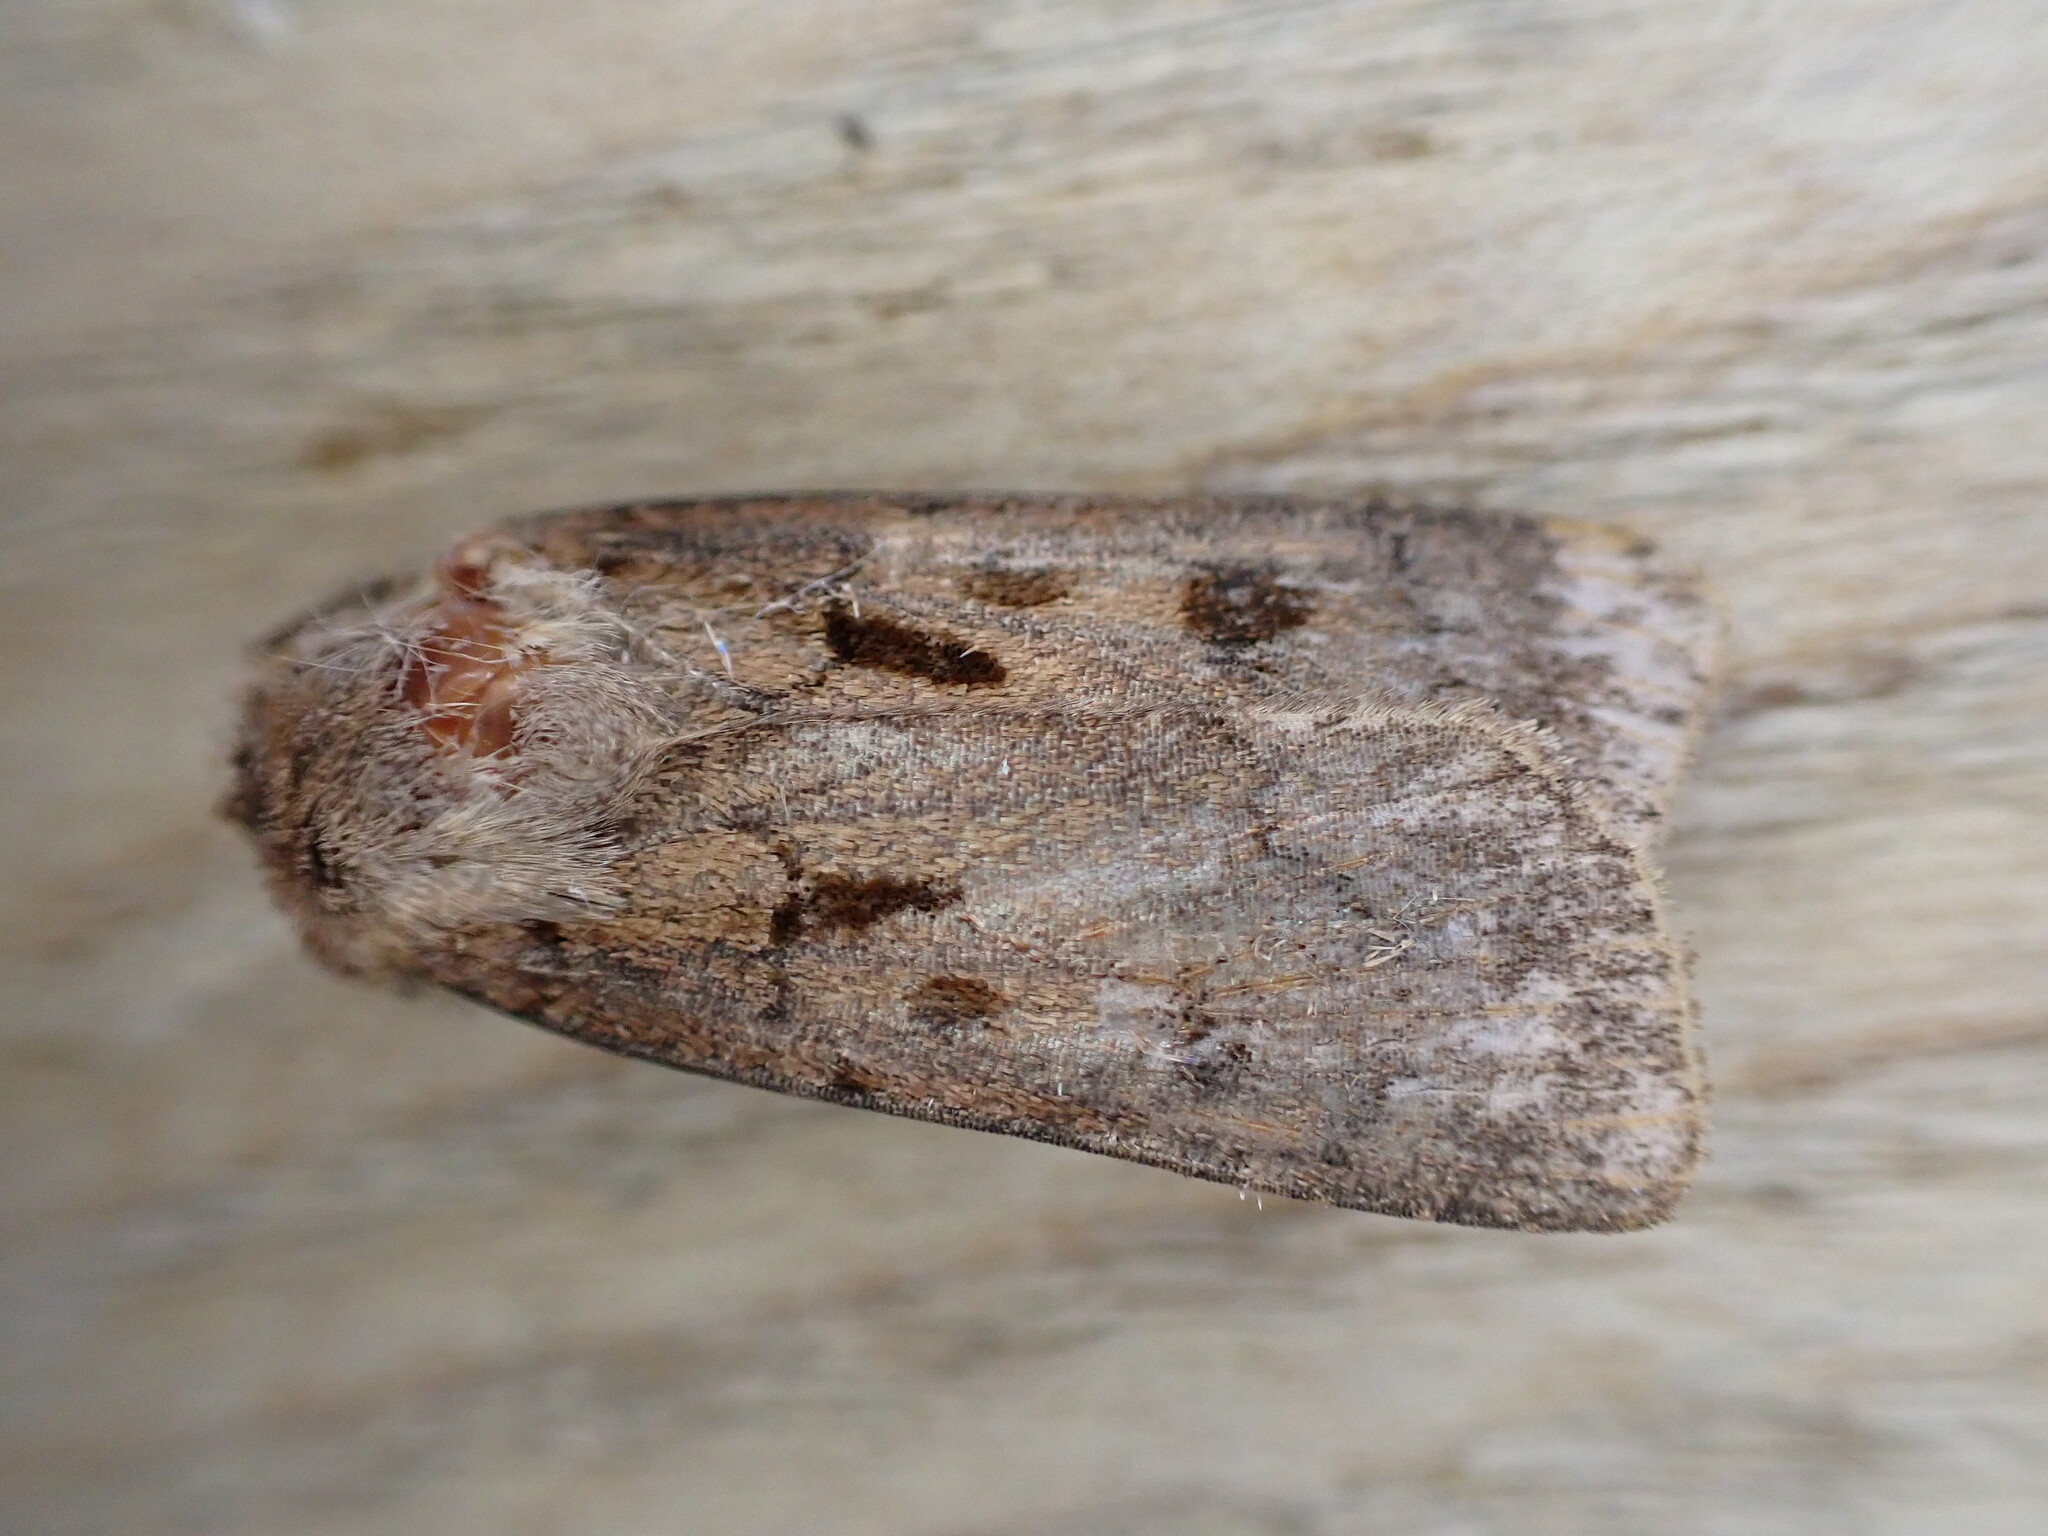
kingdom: Animalia
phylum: Arthropoda
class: Insecta
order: Lepidoptera
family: Noctuidae
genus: Agrotis
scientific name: Agrotis exclamationis
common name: Heart and dart
